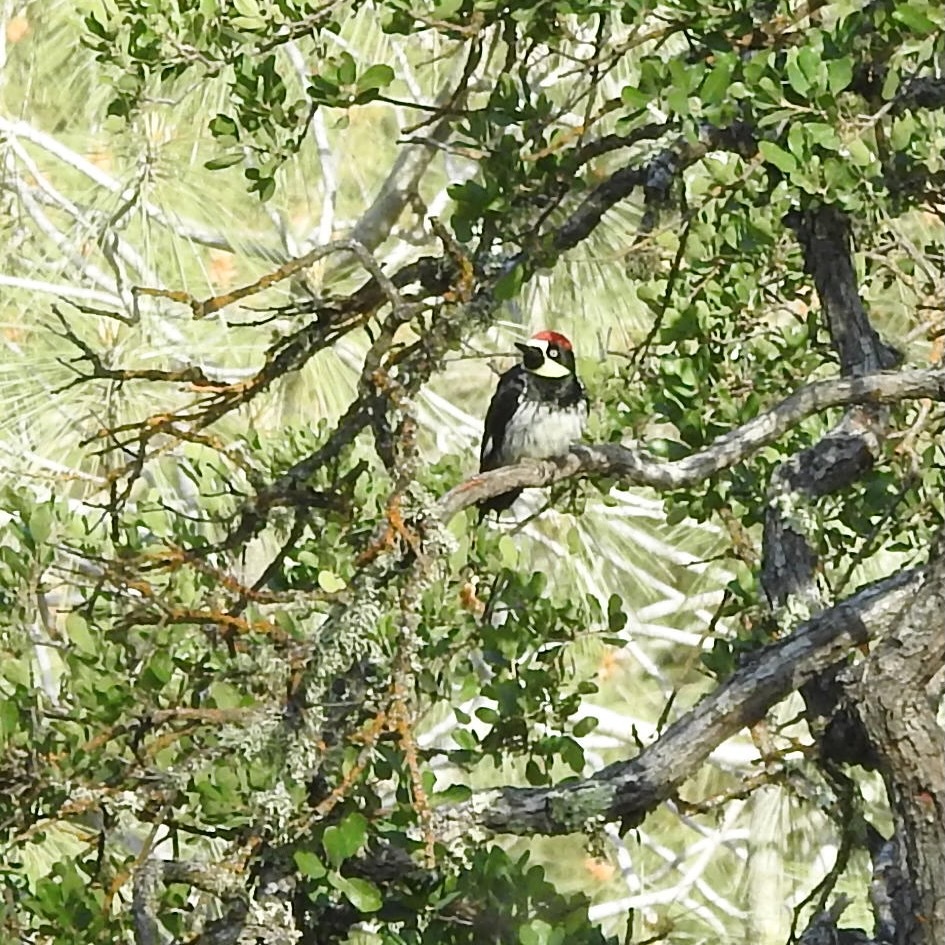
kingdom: Animalia
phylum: Chordata
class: Aves
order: Piciformes
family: Picidae
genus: Melanerpes
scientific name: Melanerpes formicivorus
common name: Acorn woodpecker
